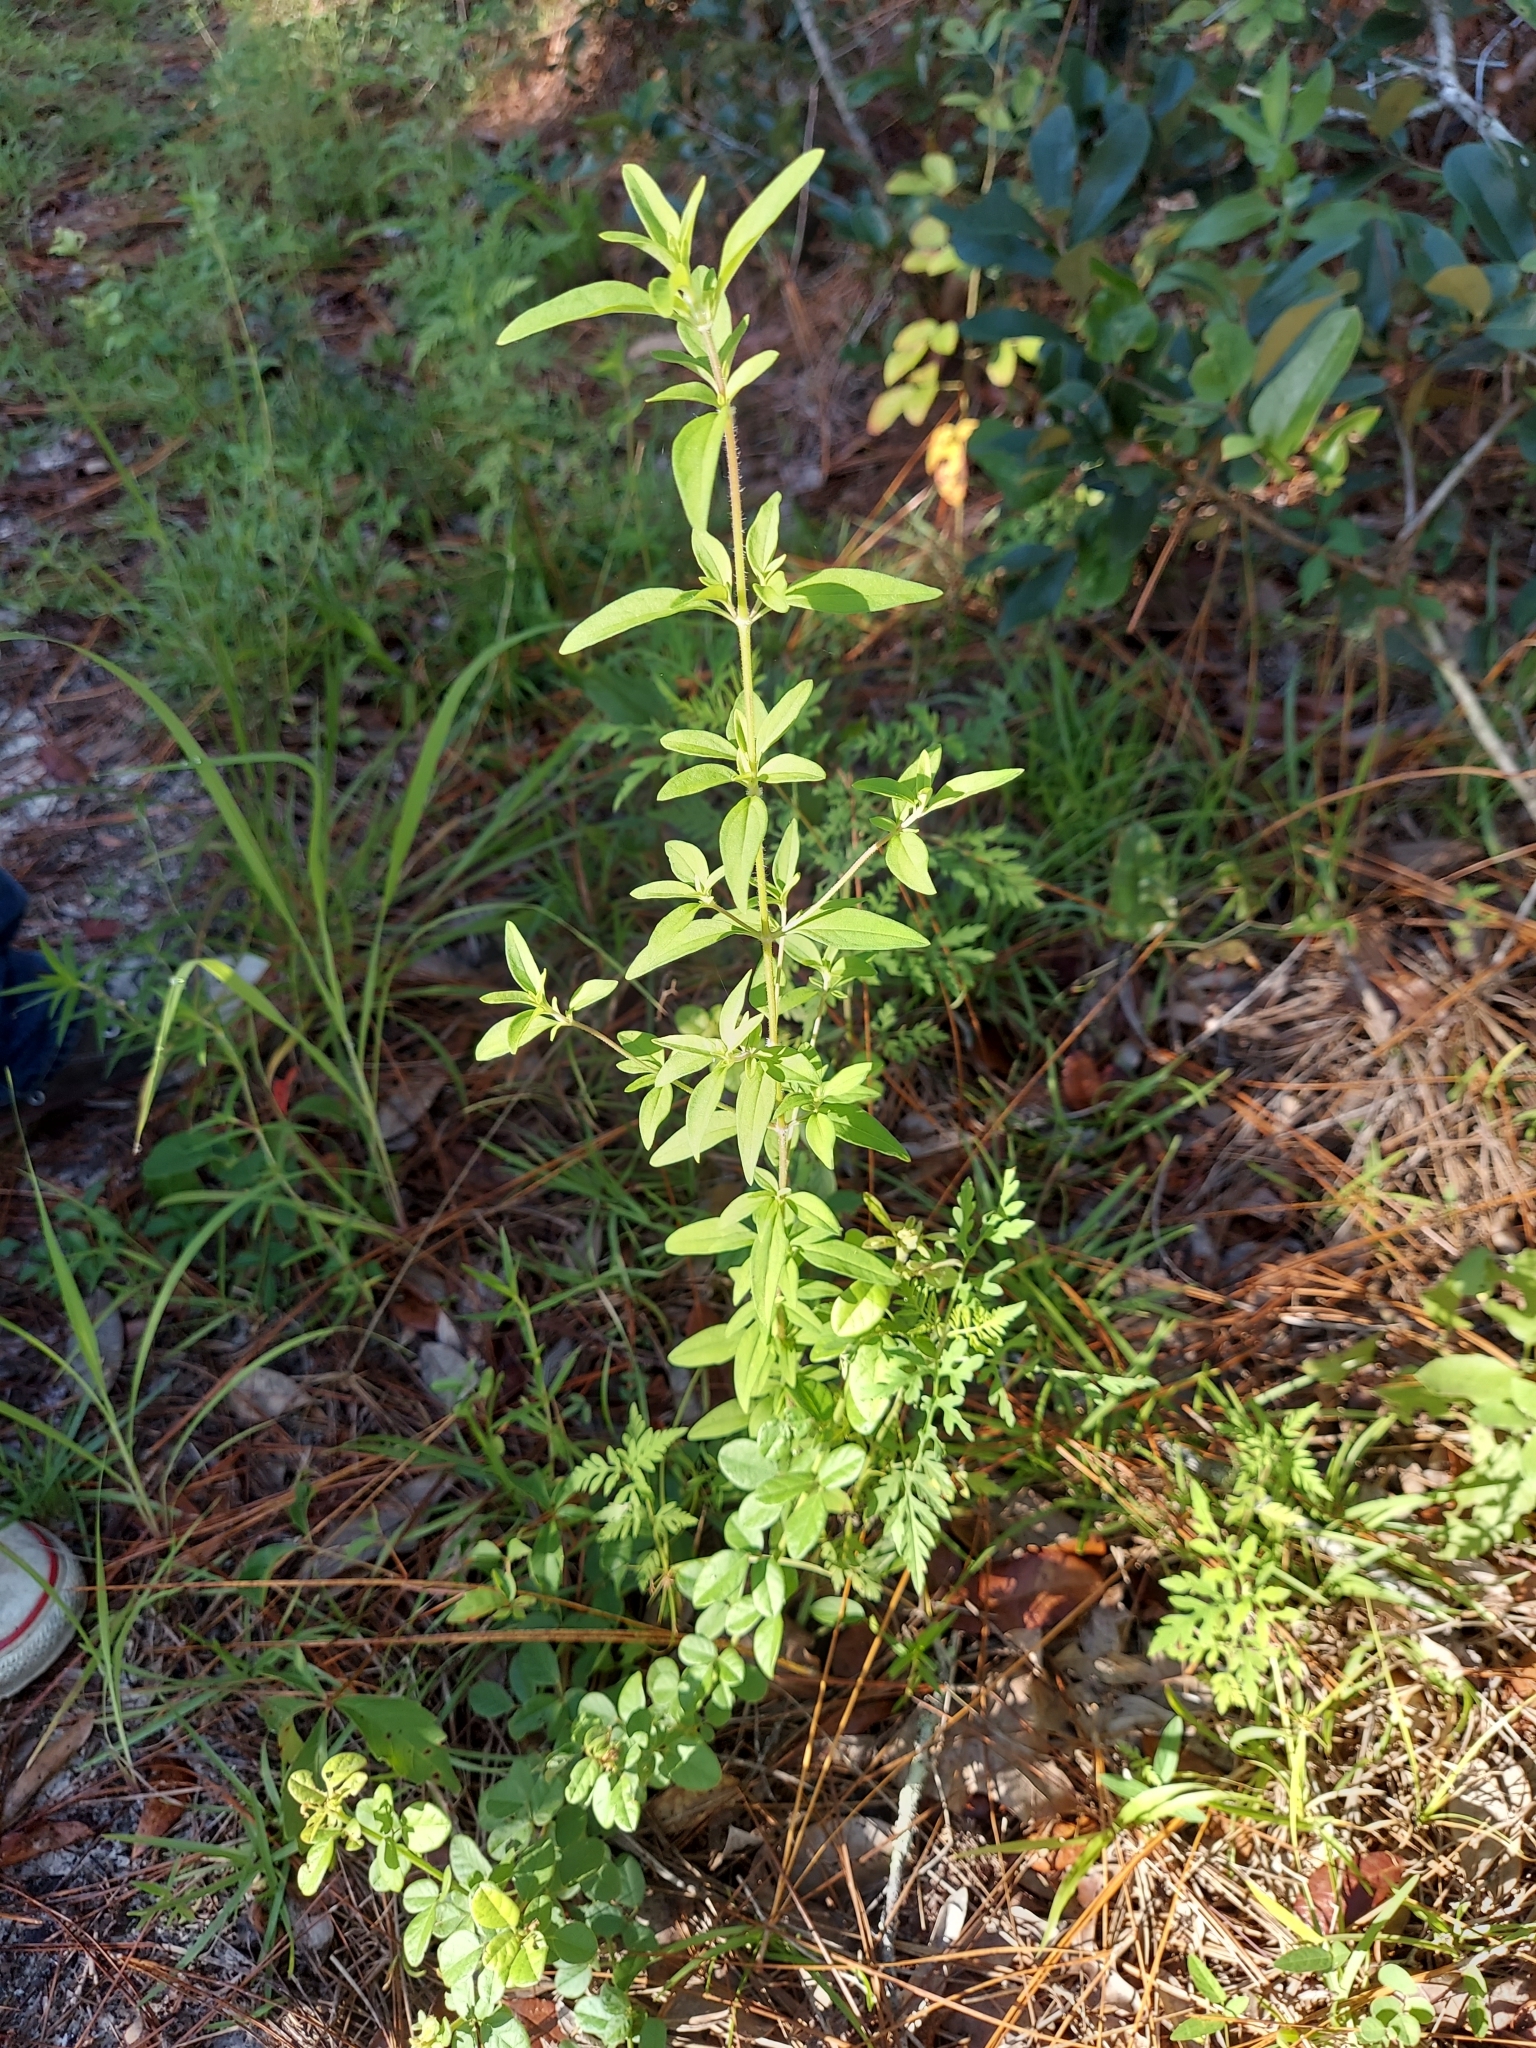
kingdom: Plantae
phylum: Tracheophyta
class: Magnoliopsida
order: Lamiales
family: Lamiaceae
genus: Trichostema
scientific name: Trichostema dichotomum
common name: Bastard pennyroyal
